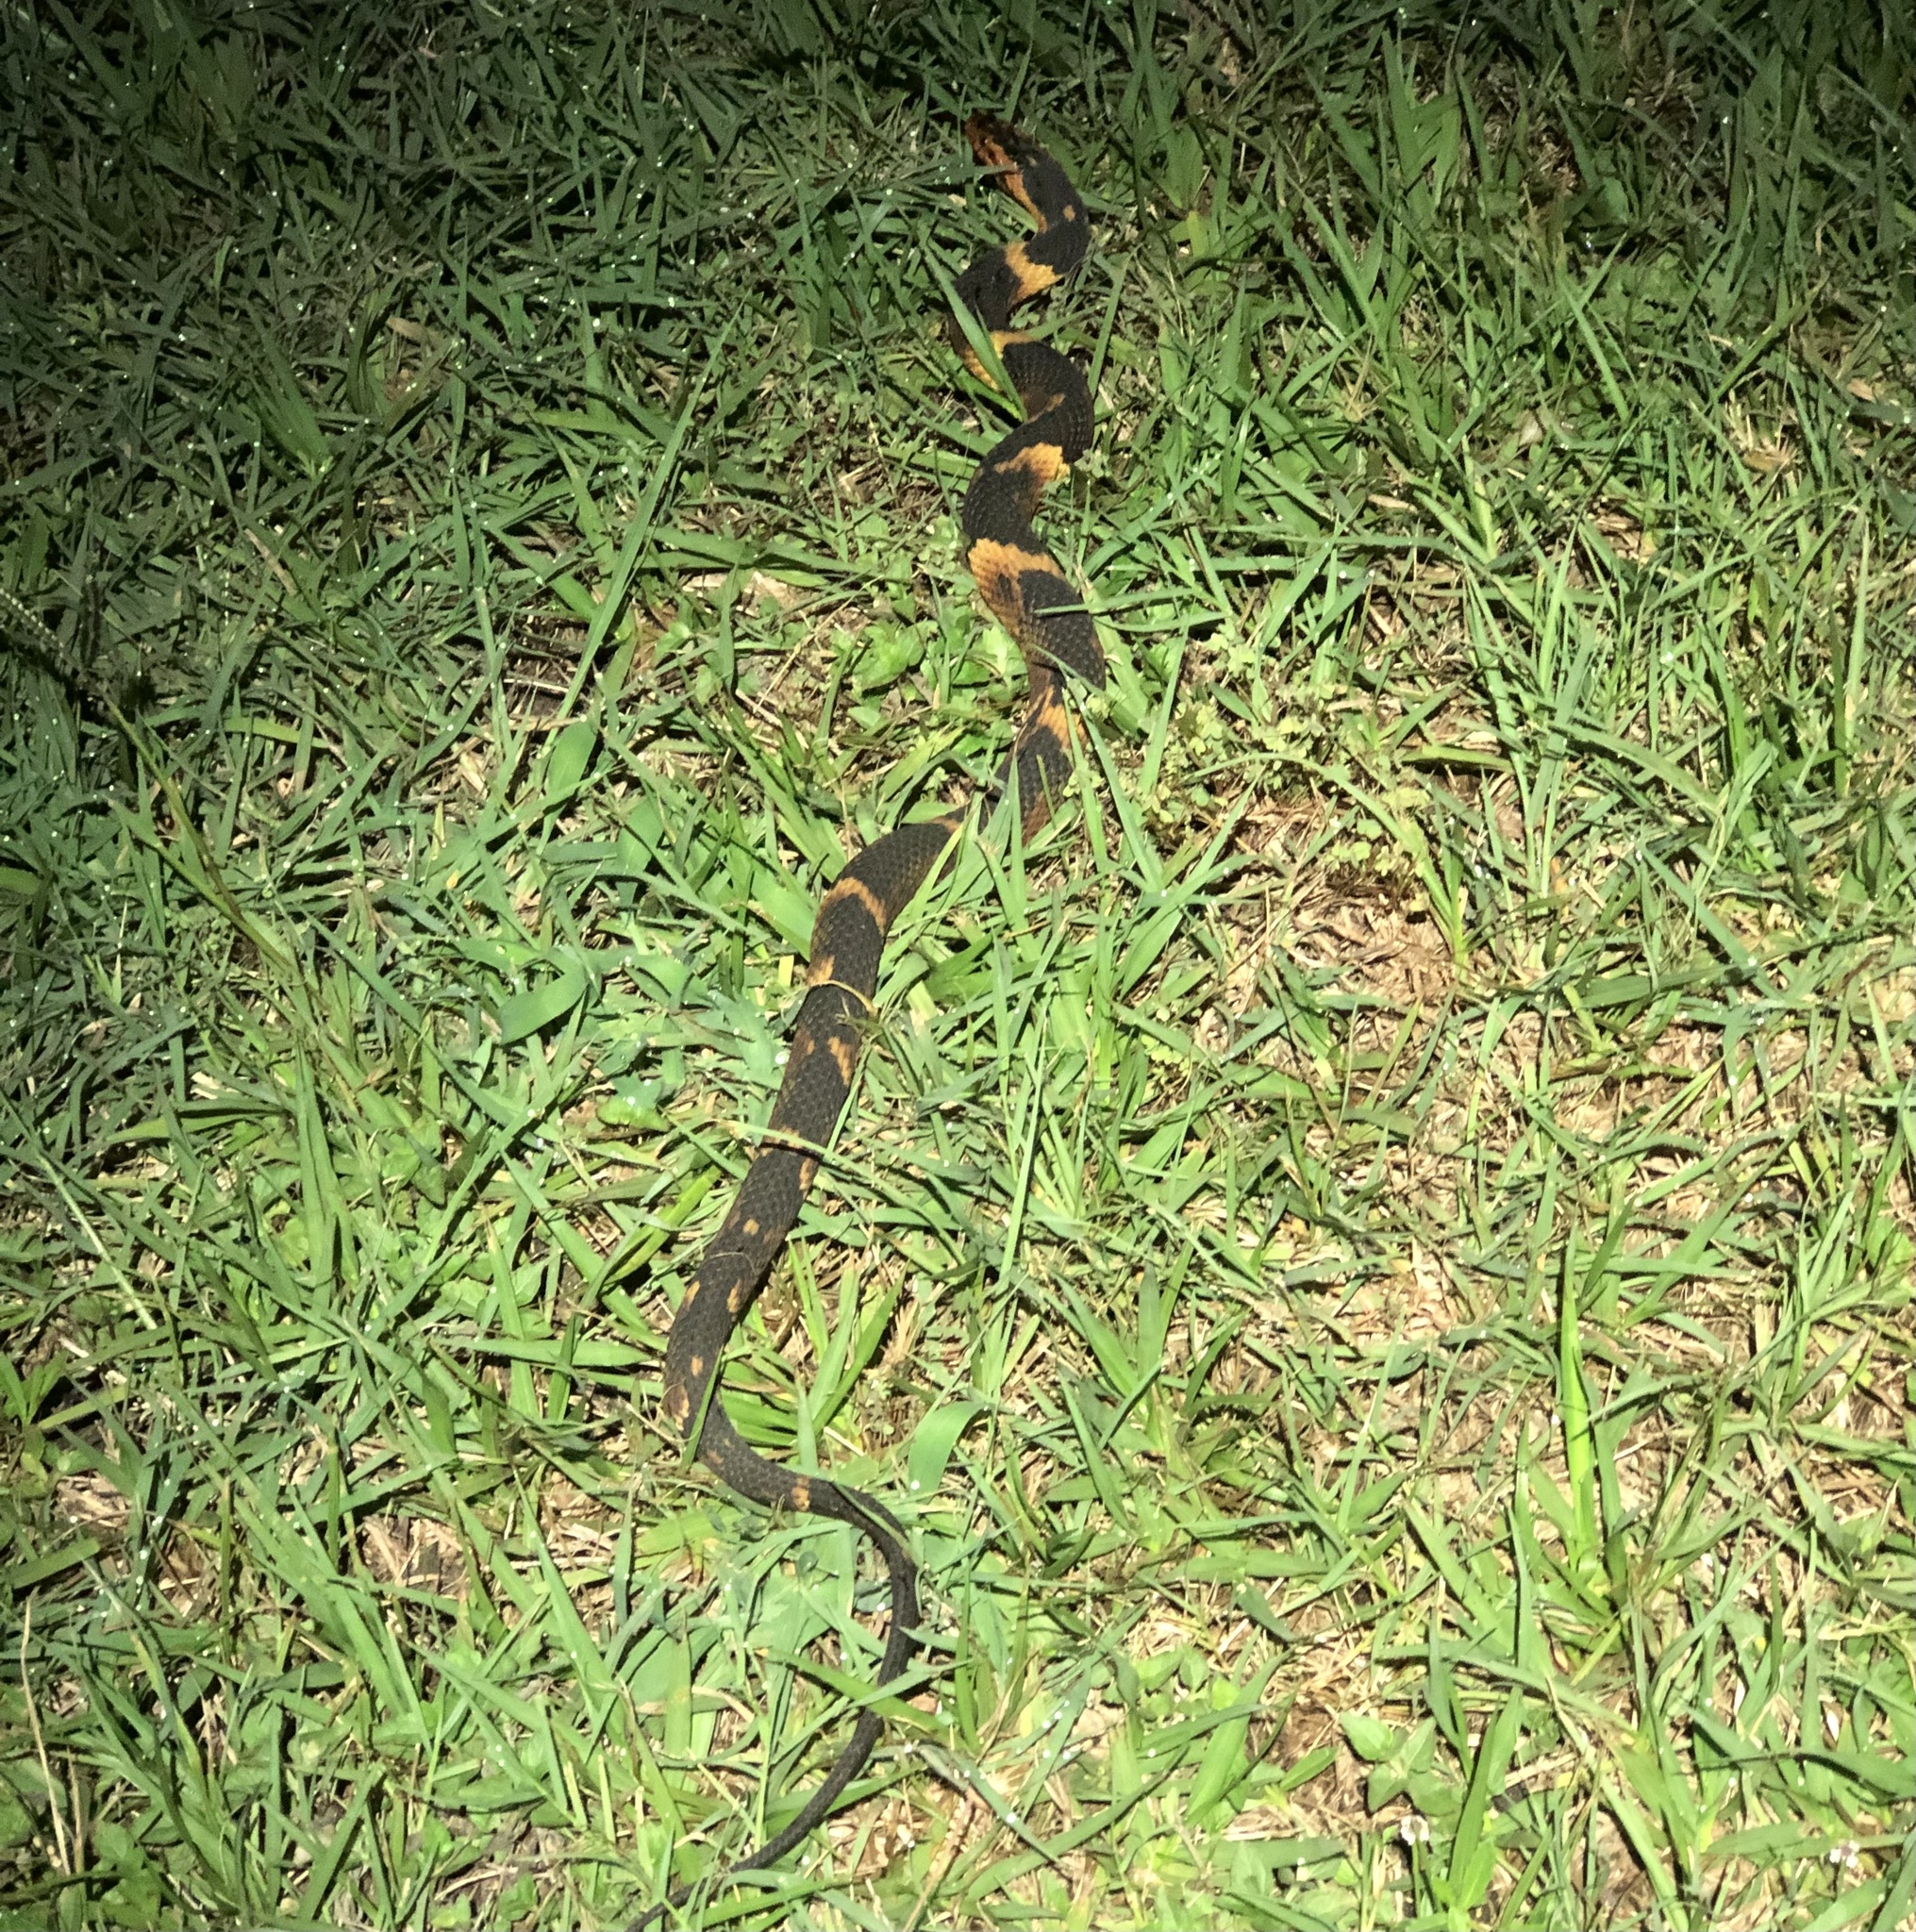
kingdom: Animalia
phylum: Chordata
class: Squamata
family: Colubridae
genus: Nerodia
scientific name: Nerodia fasciata
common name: Southern water snake
